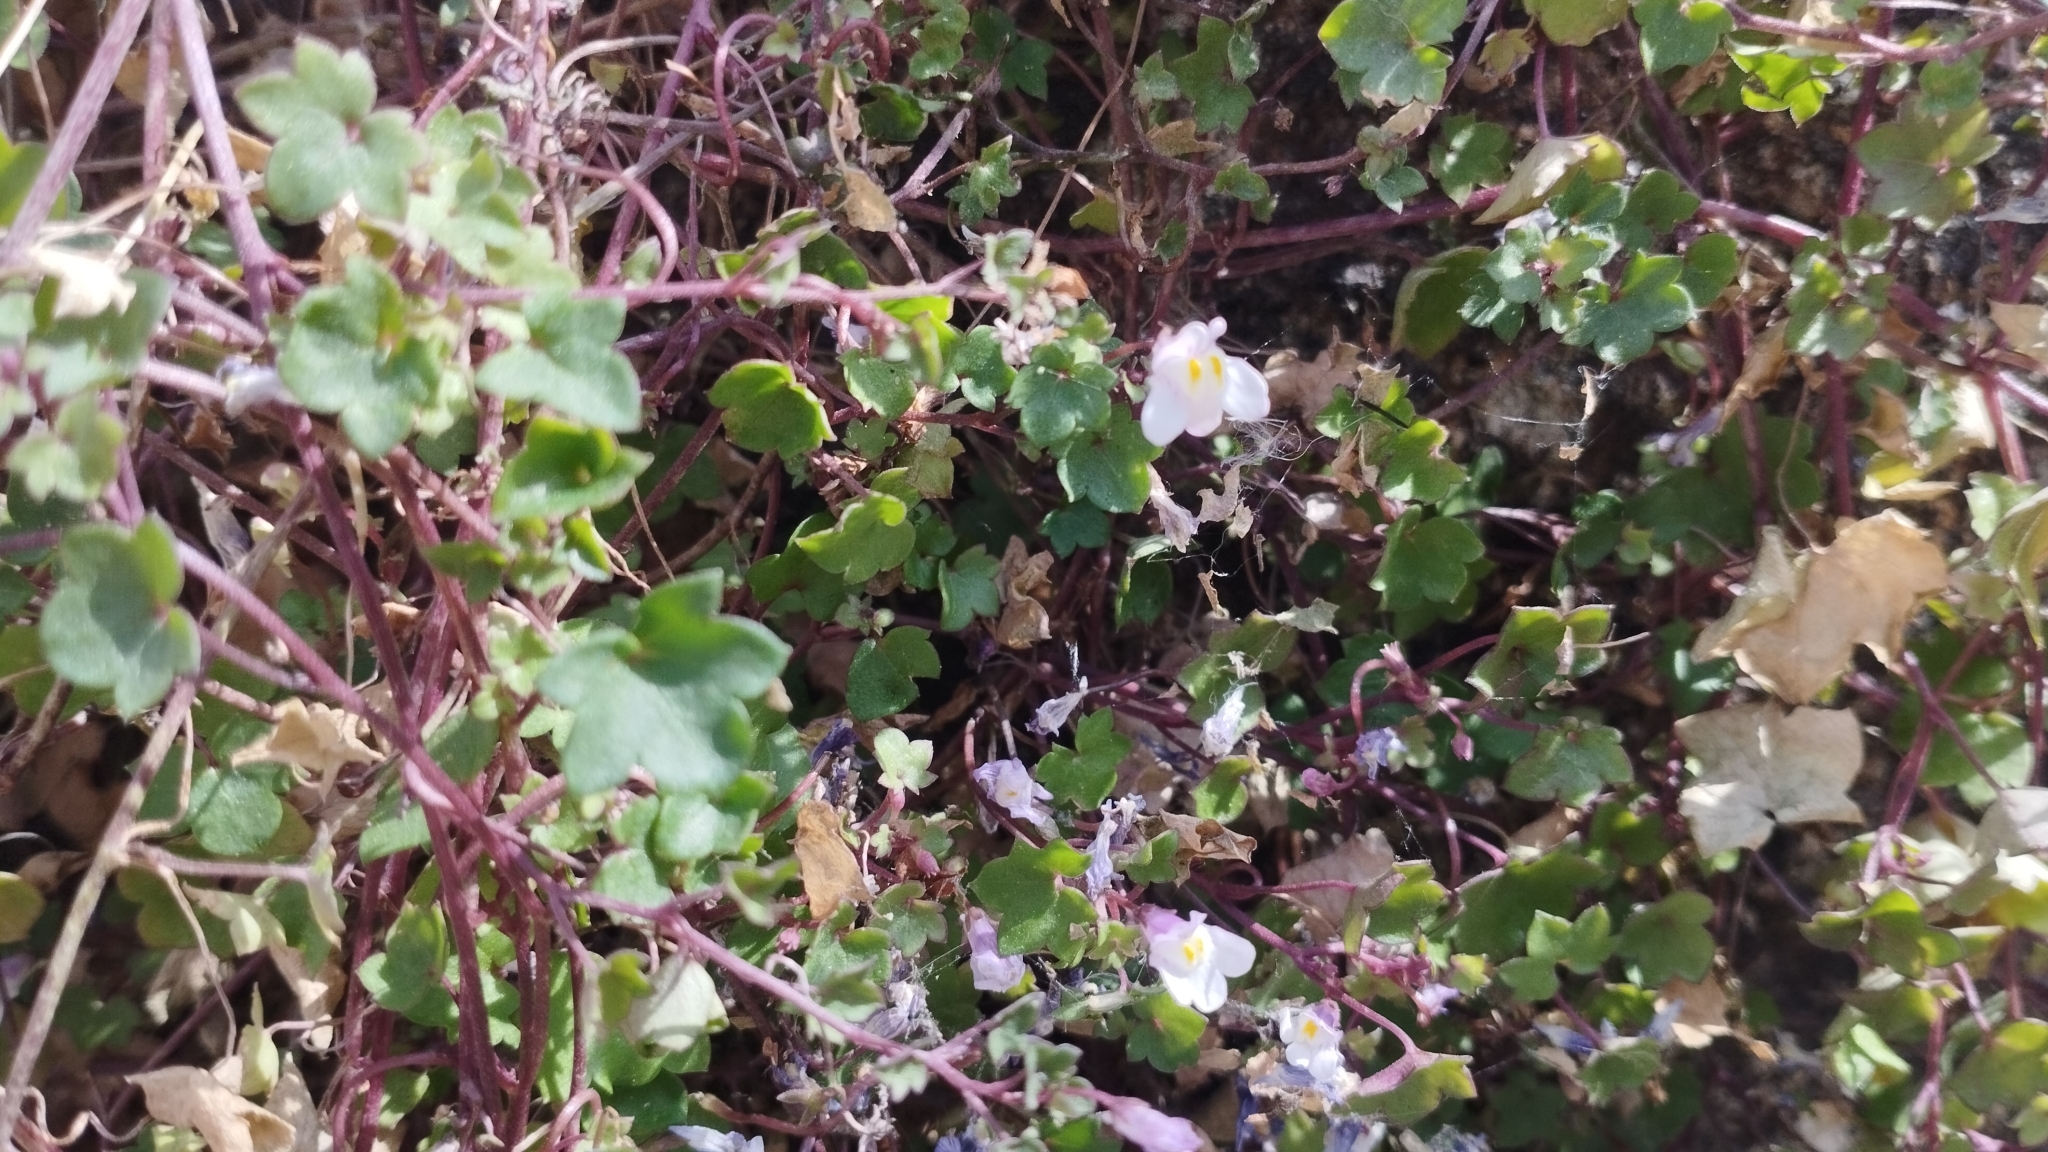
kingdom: Plantae
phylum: Tracheophyta
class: Magnoliopsida
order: Lamiales
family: Plantaginaceae
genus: Cymbalaria
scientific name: Cymbalaria muralis
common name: Ivy-leaved toadflax
